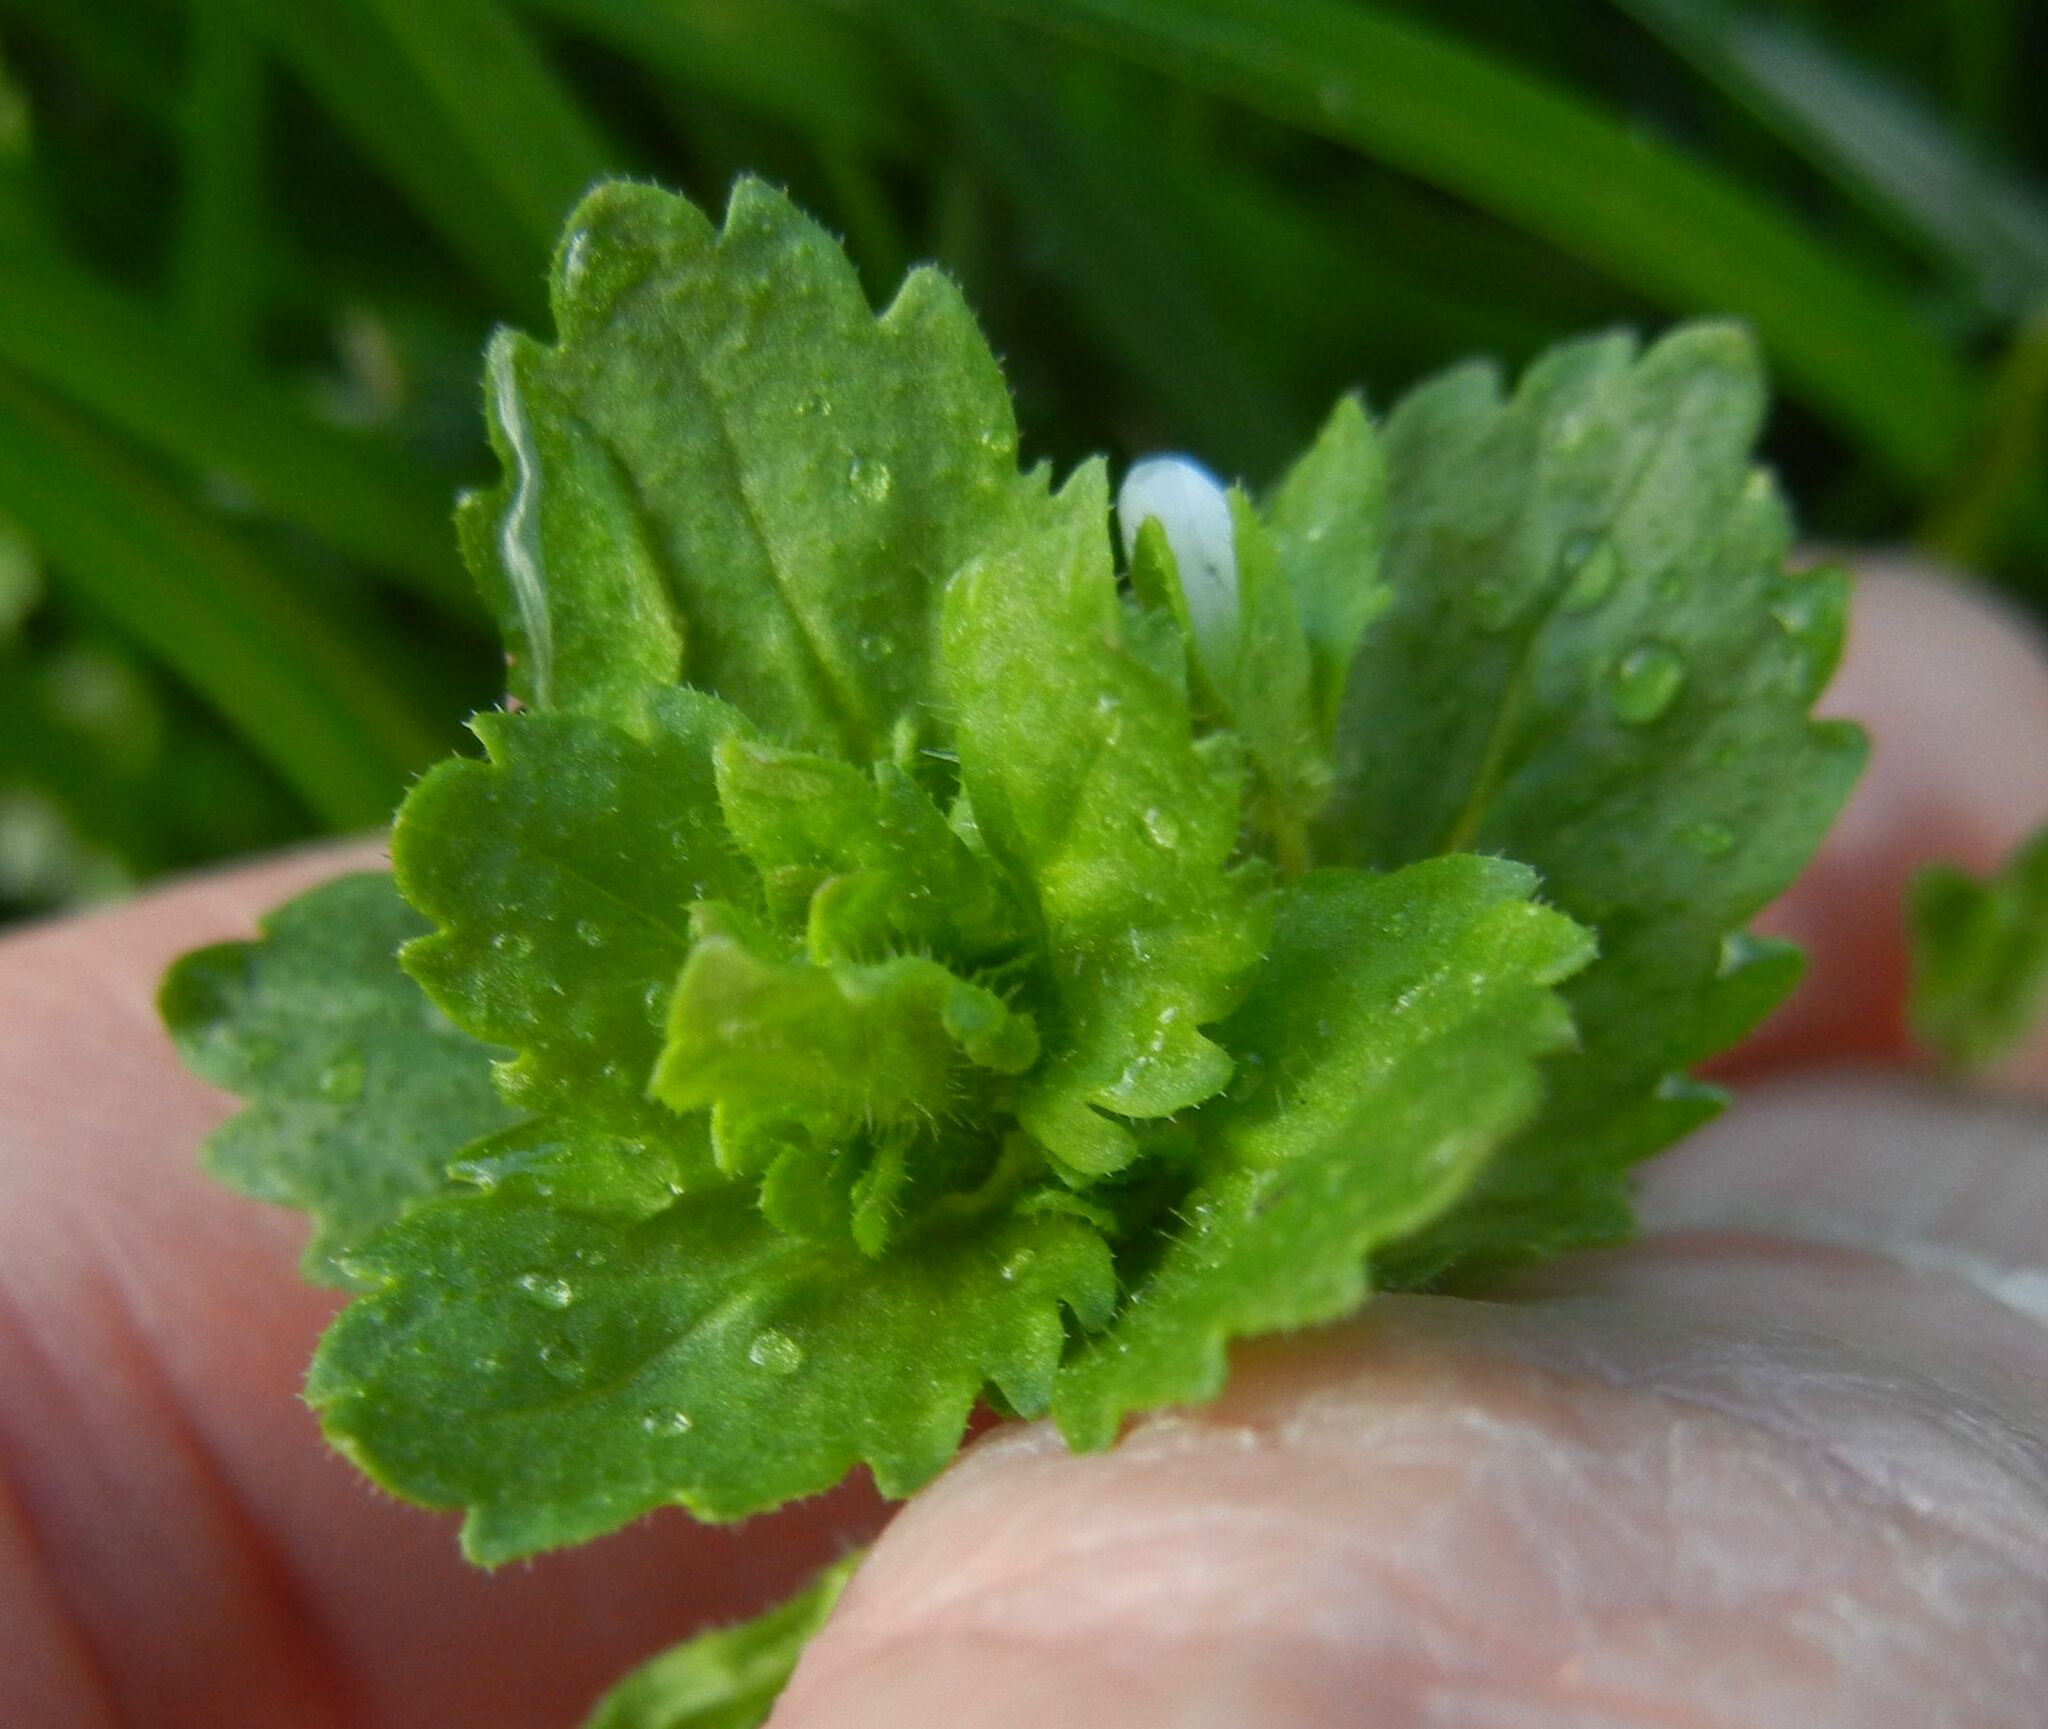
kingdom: Plantae
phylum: Tracheophyta
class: Magnoliopsida
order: Lamiales
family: Plantaginaceae
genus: Veronica
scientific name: Veronica persica
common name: Common field-speedwell
